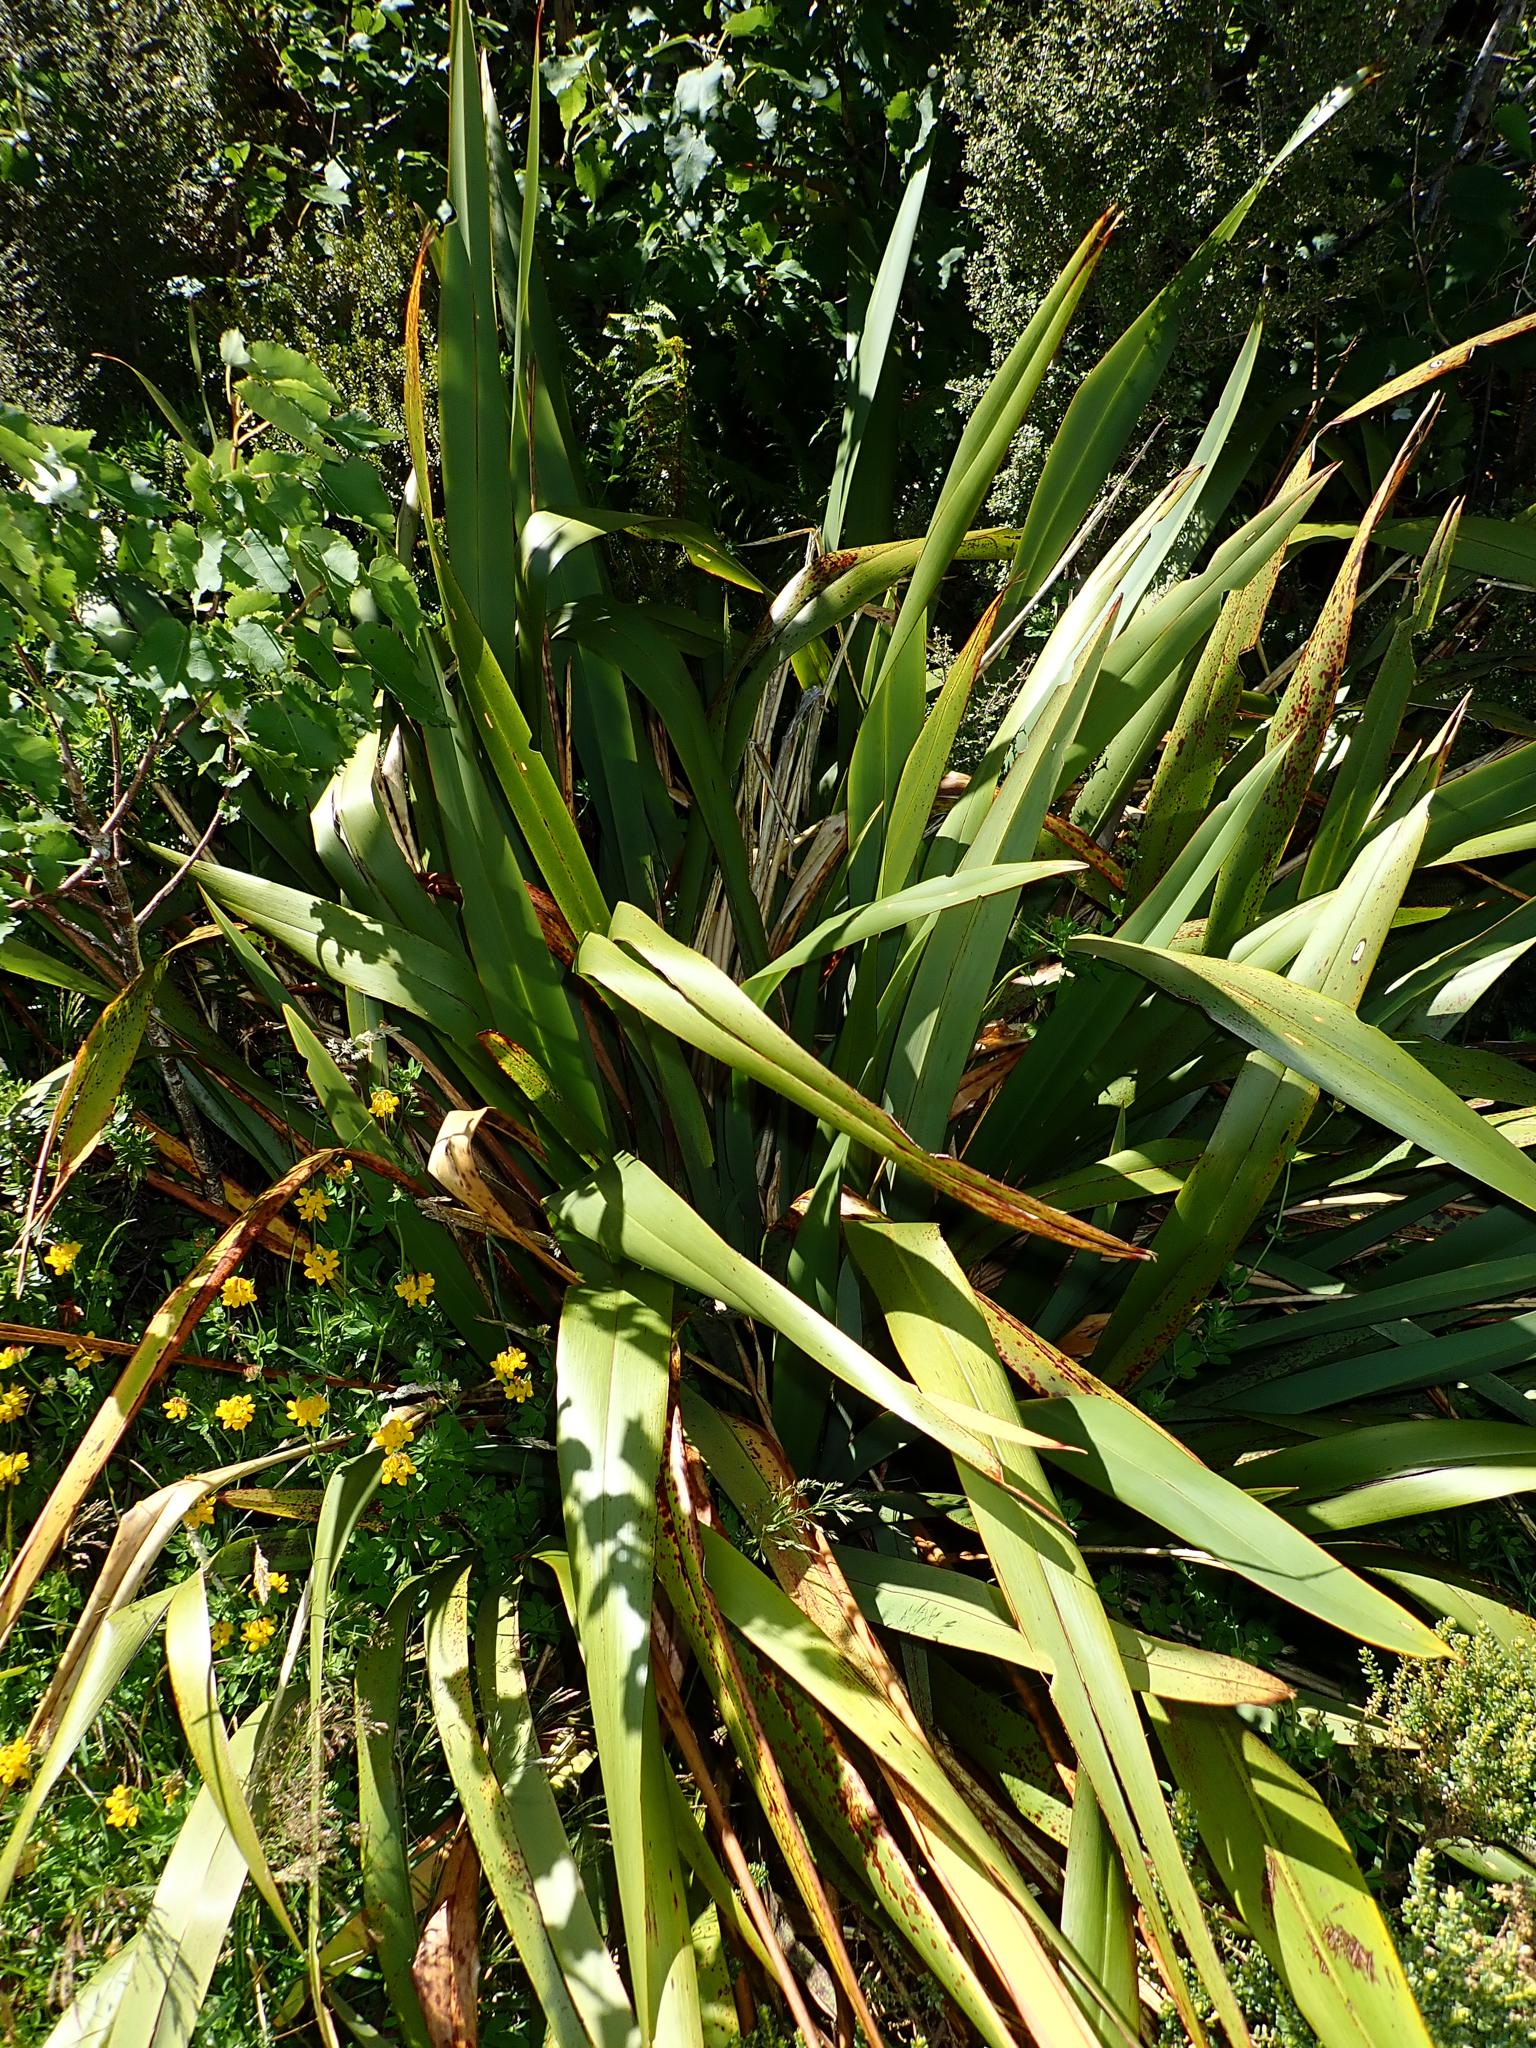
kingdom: Plantae
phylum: Tracheophyta
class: Liliopsida
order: Asparagales
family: Asphodelaceae
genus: Phormium
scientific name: Phormium colensoi
